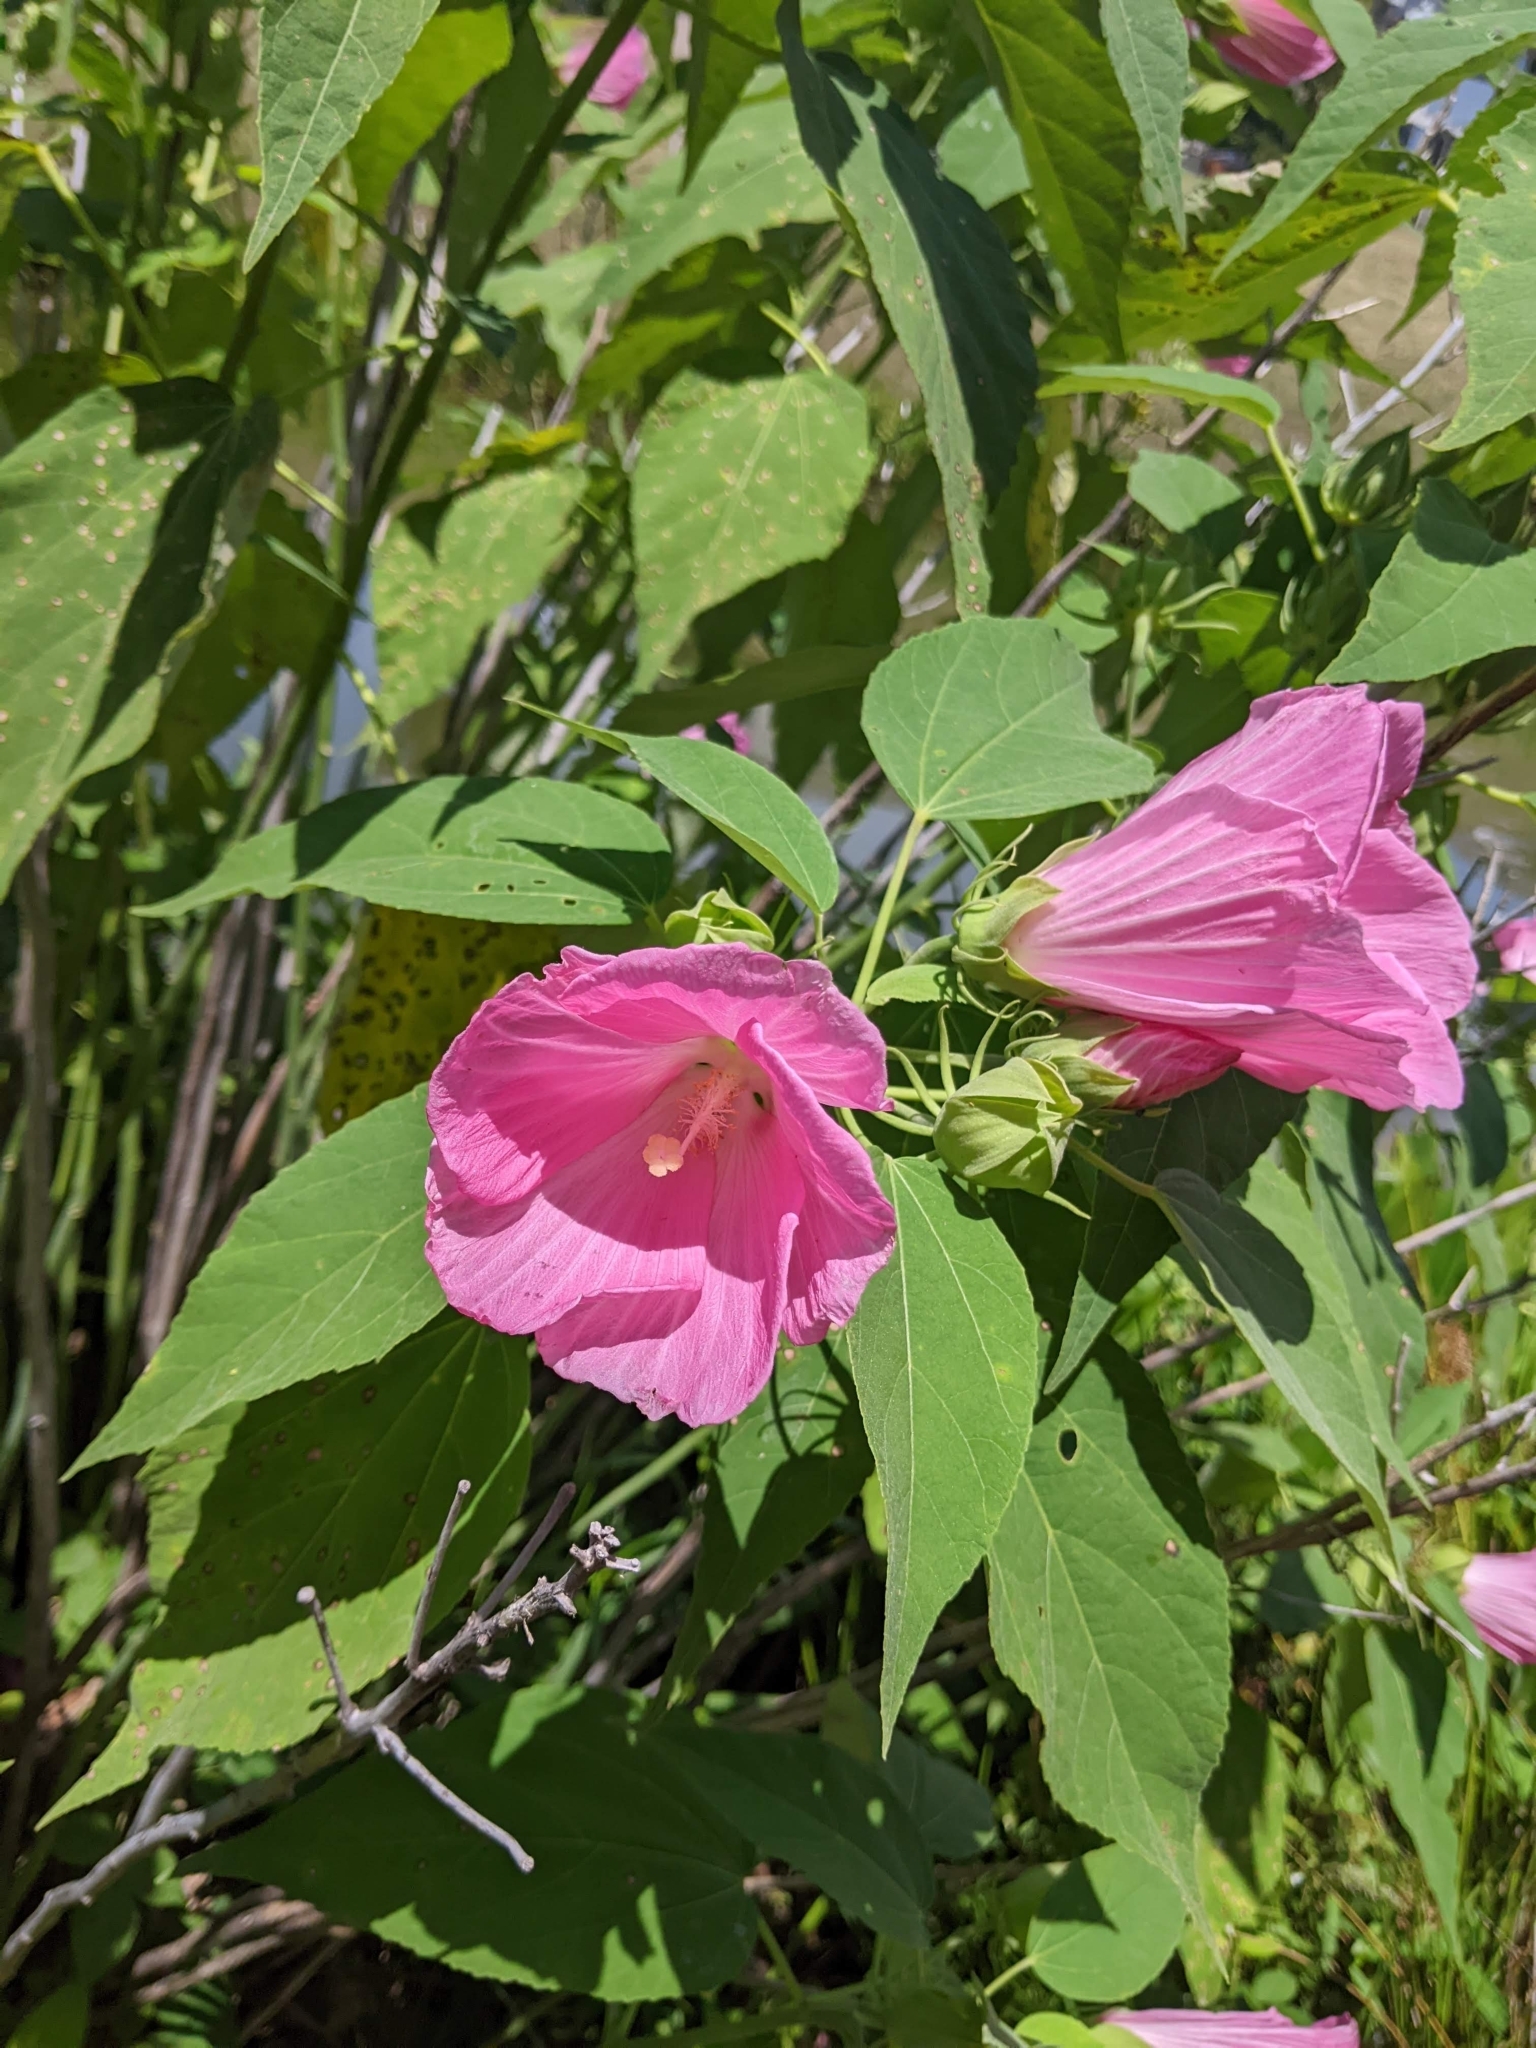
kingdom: Plantae
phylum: Tracheophyta
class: Magnoliopsida
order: Malvales
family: Malvaceae
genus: Hibiscus
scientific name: Hibiscus moscheutos
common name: Common rose-mallow
